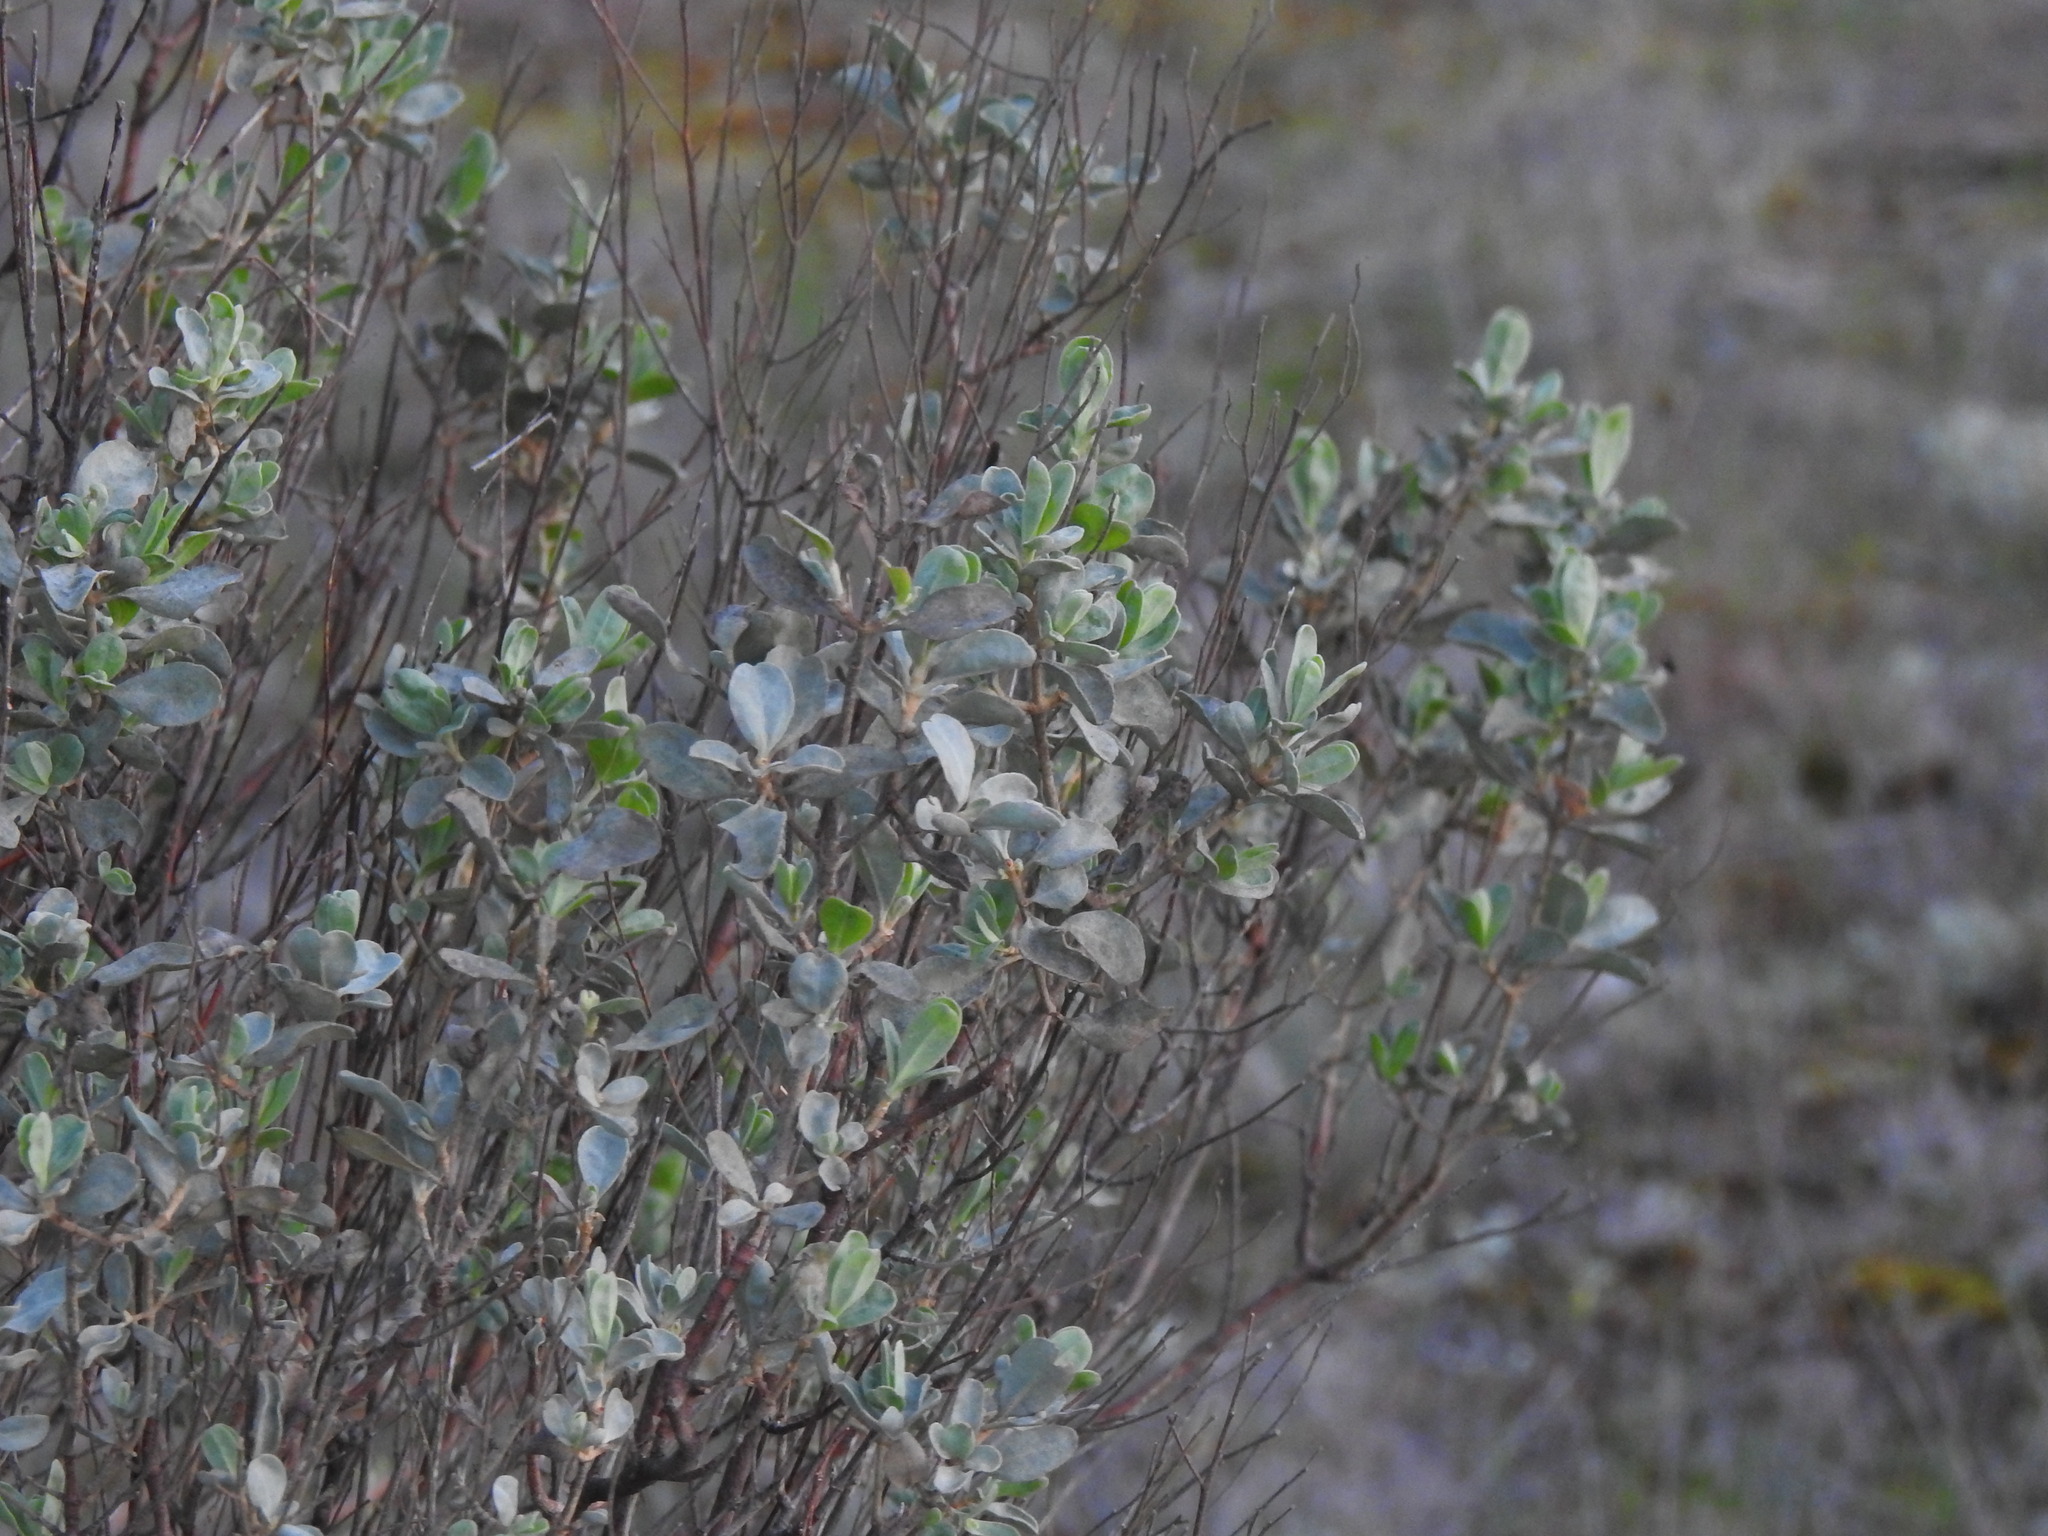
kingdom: Plantae
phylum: Tracheophyta
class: Magnoliopsida
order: Malvales
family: Cistaceae
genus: Halimium
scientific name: Halimium halimifolium
